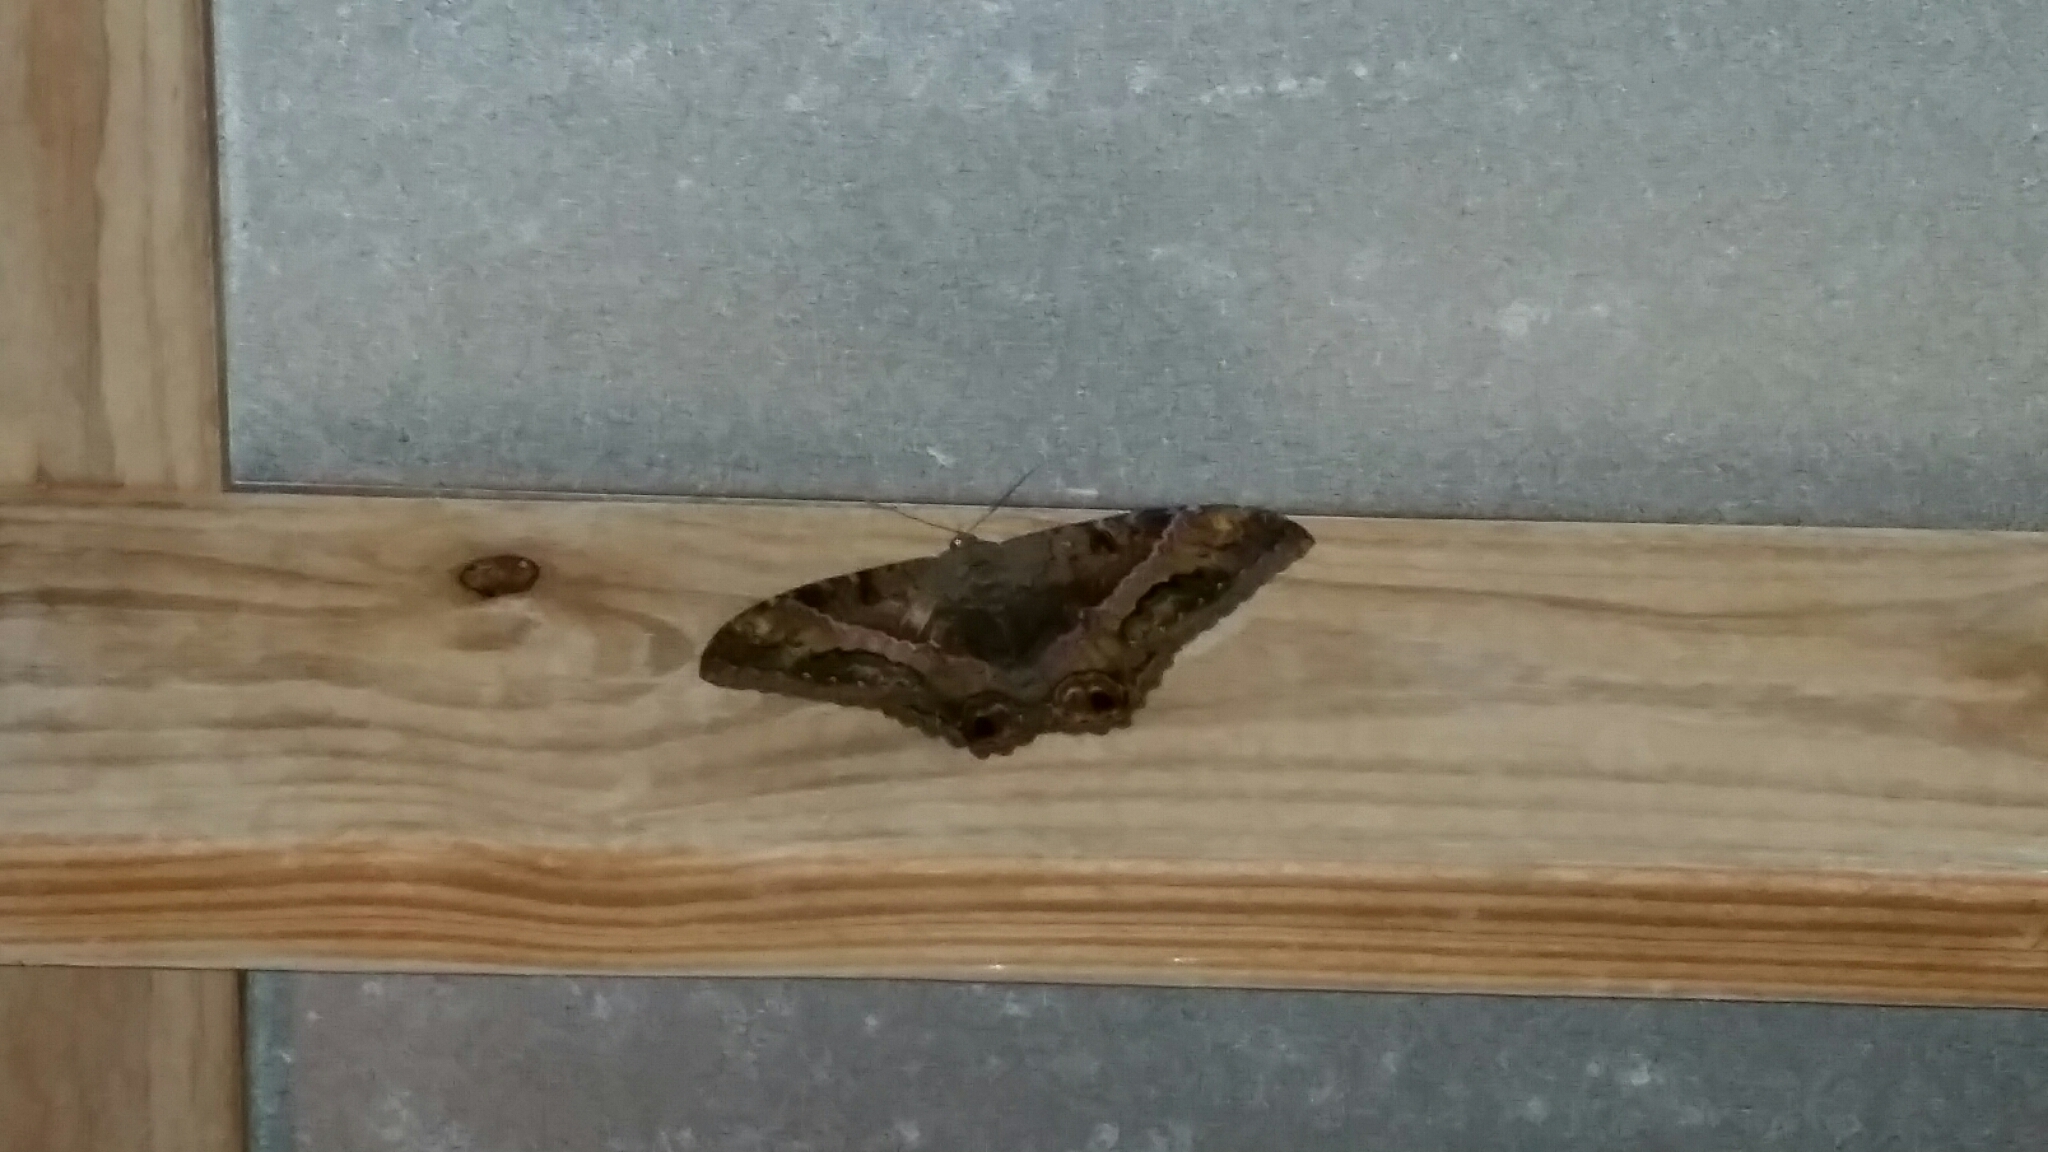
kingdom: Animalia
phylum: Arthropoda
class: Insecta
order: Lepidoptera
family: Erebidae
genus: Ascalapha
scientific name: Ascalapha odorata
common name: Black witch
